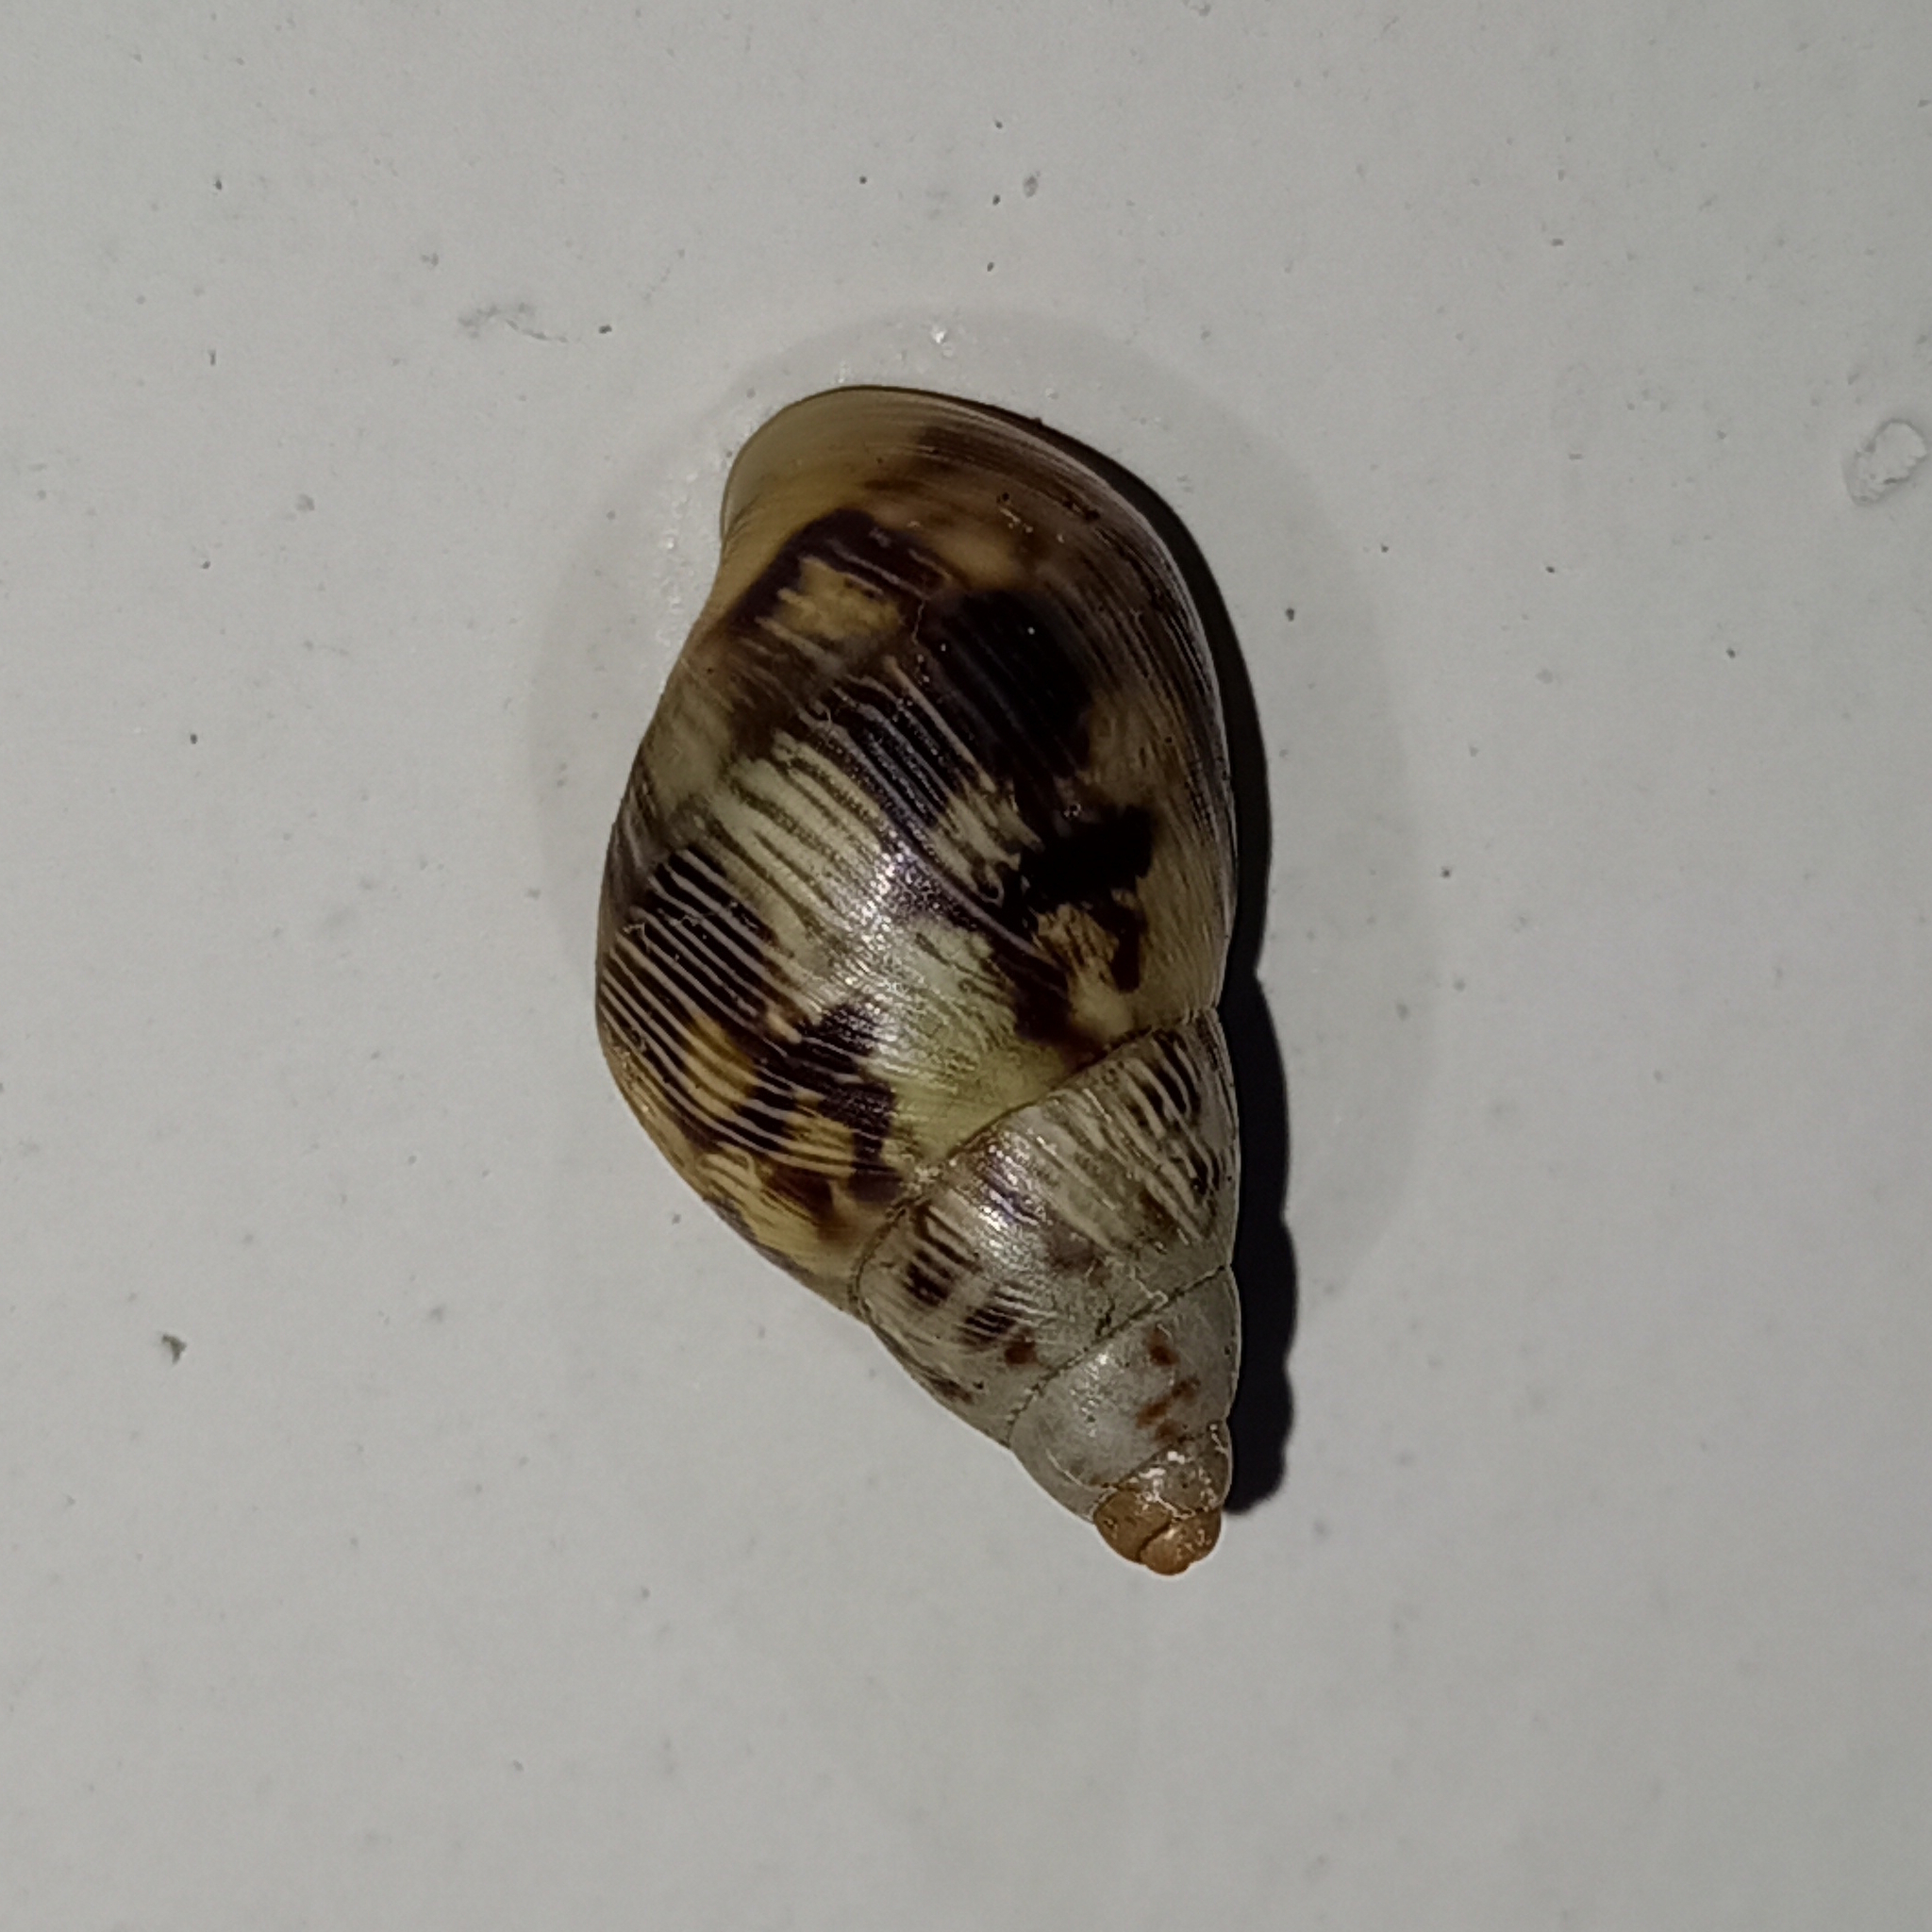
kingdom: Animalia
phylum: Mollusca
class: Gastropoda
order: Stylommatophora
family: Bulimulidae
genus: Drymaeus
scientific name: Drymaeus papyraceus
